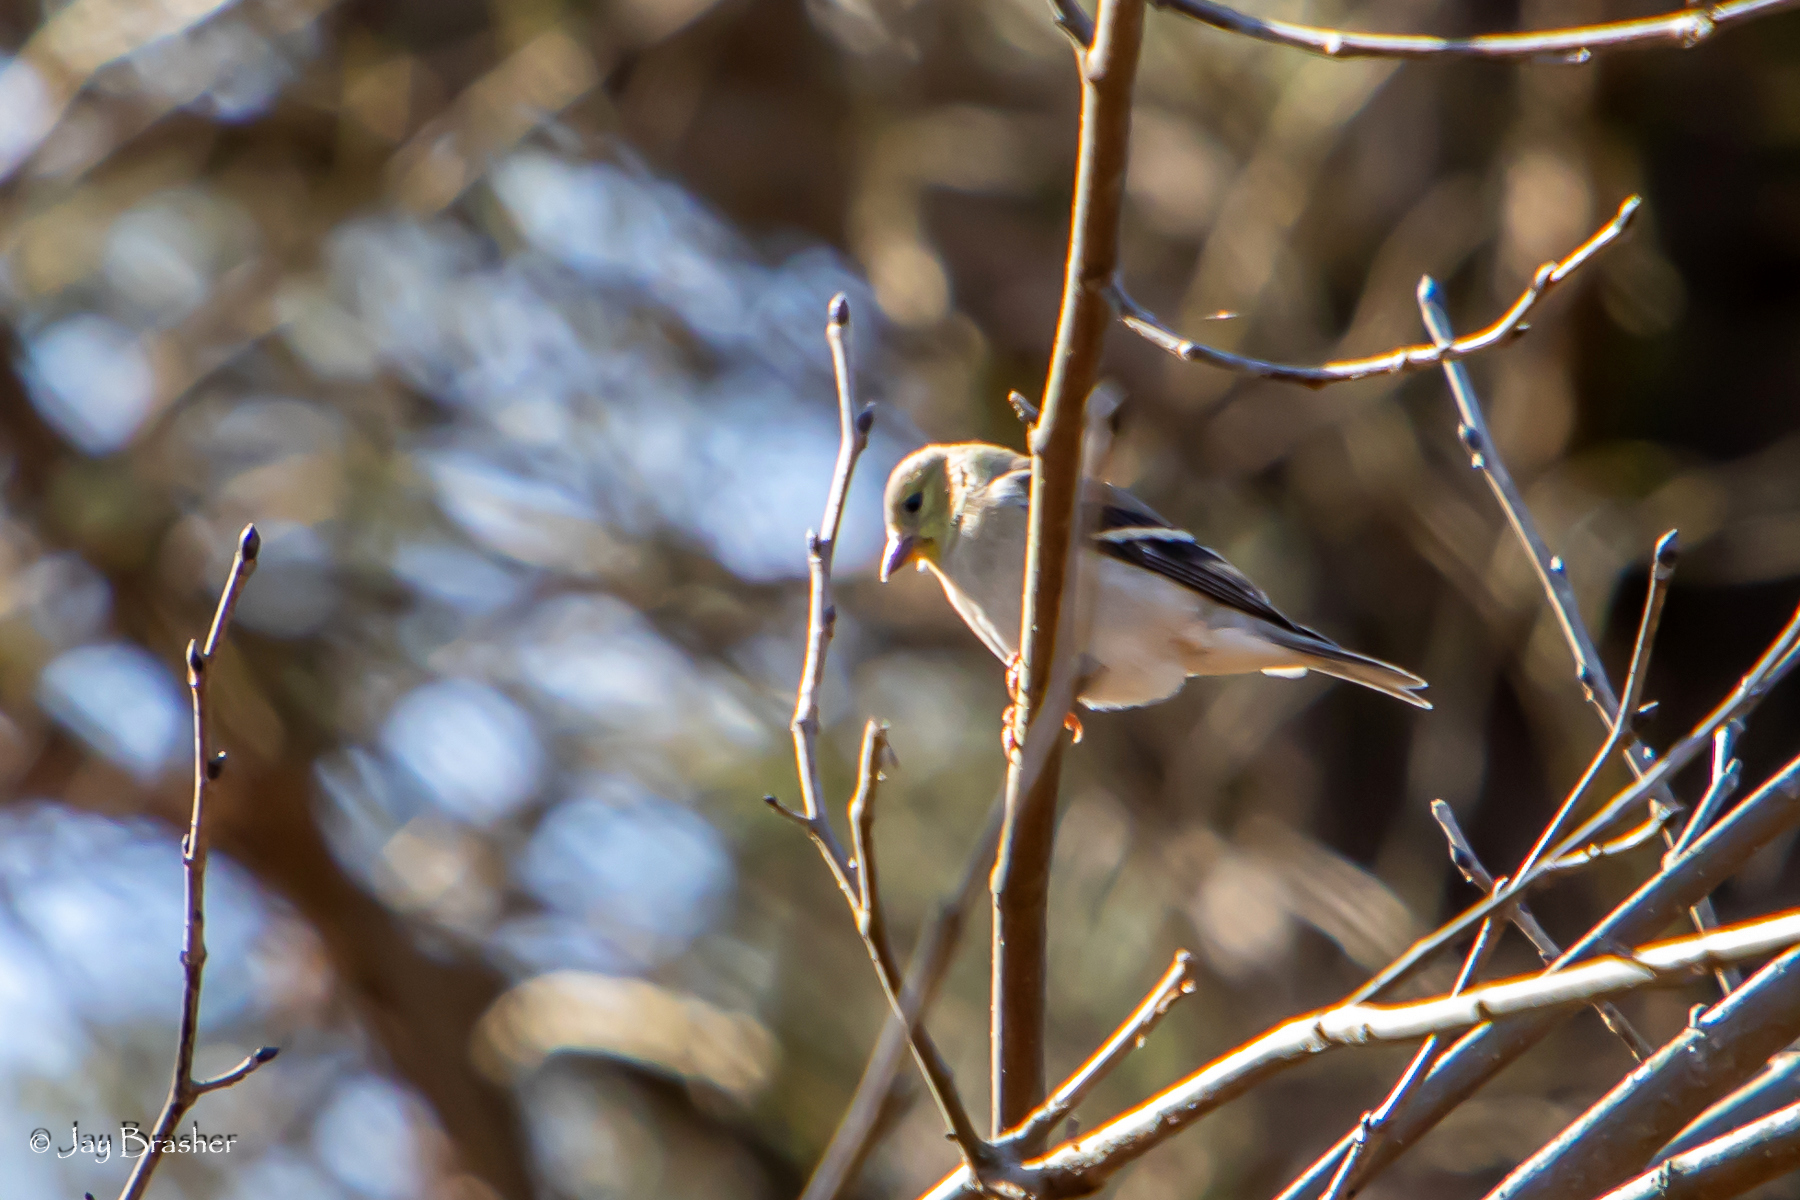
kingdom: Animalia
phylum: Chordata
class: Aves
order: Passeriformes
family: Fringillidae
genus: Spinus
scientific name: Spinus tristis
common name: American goldfinch
